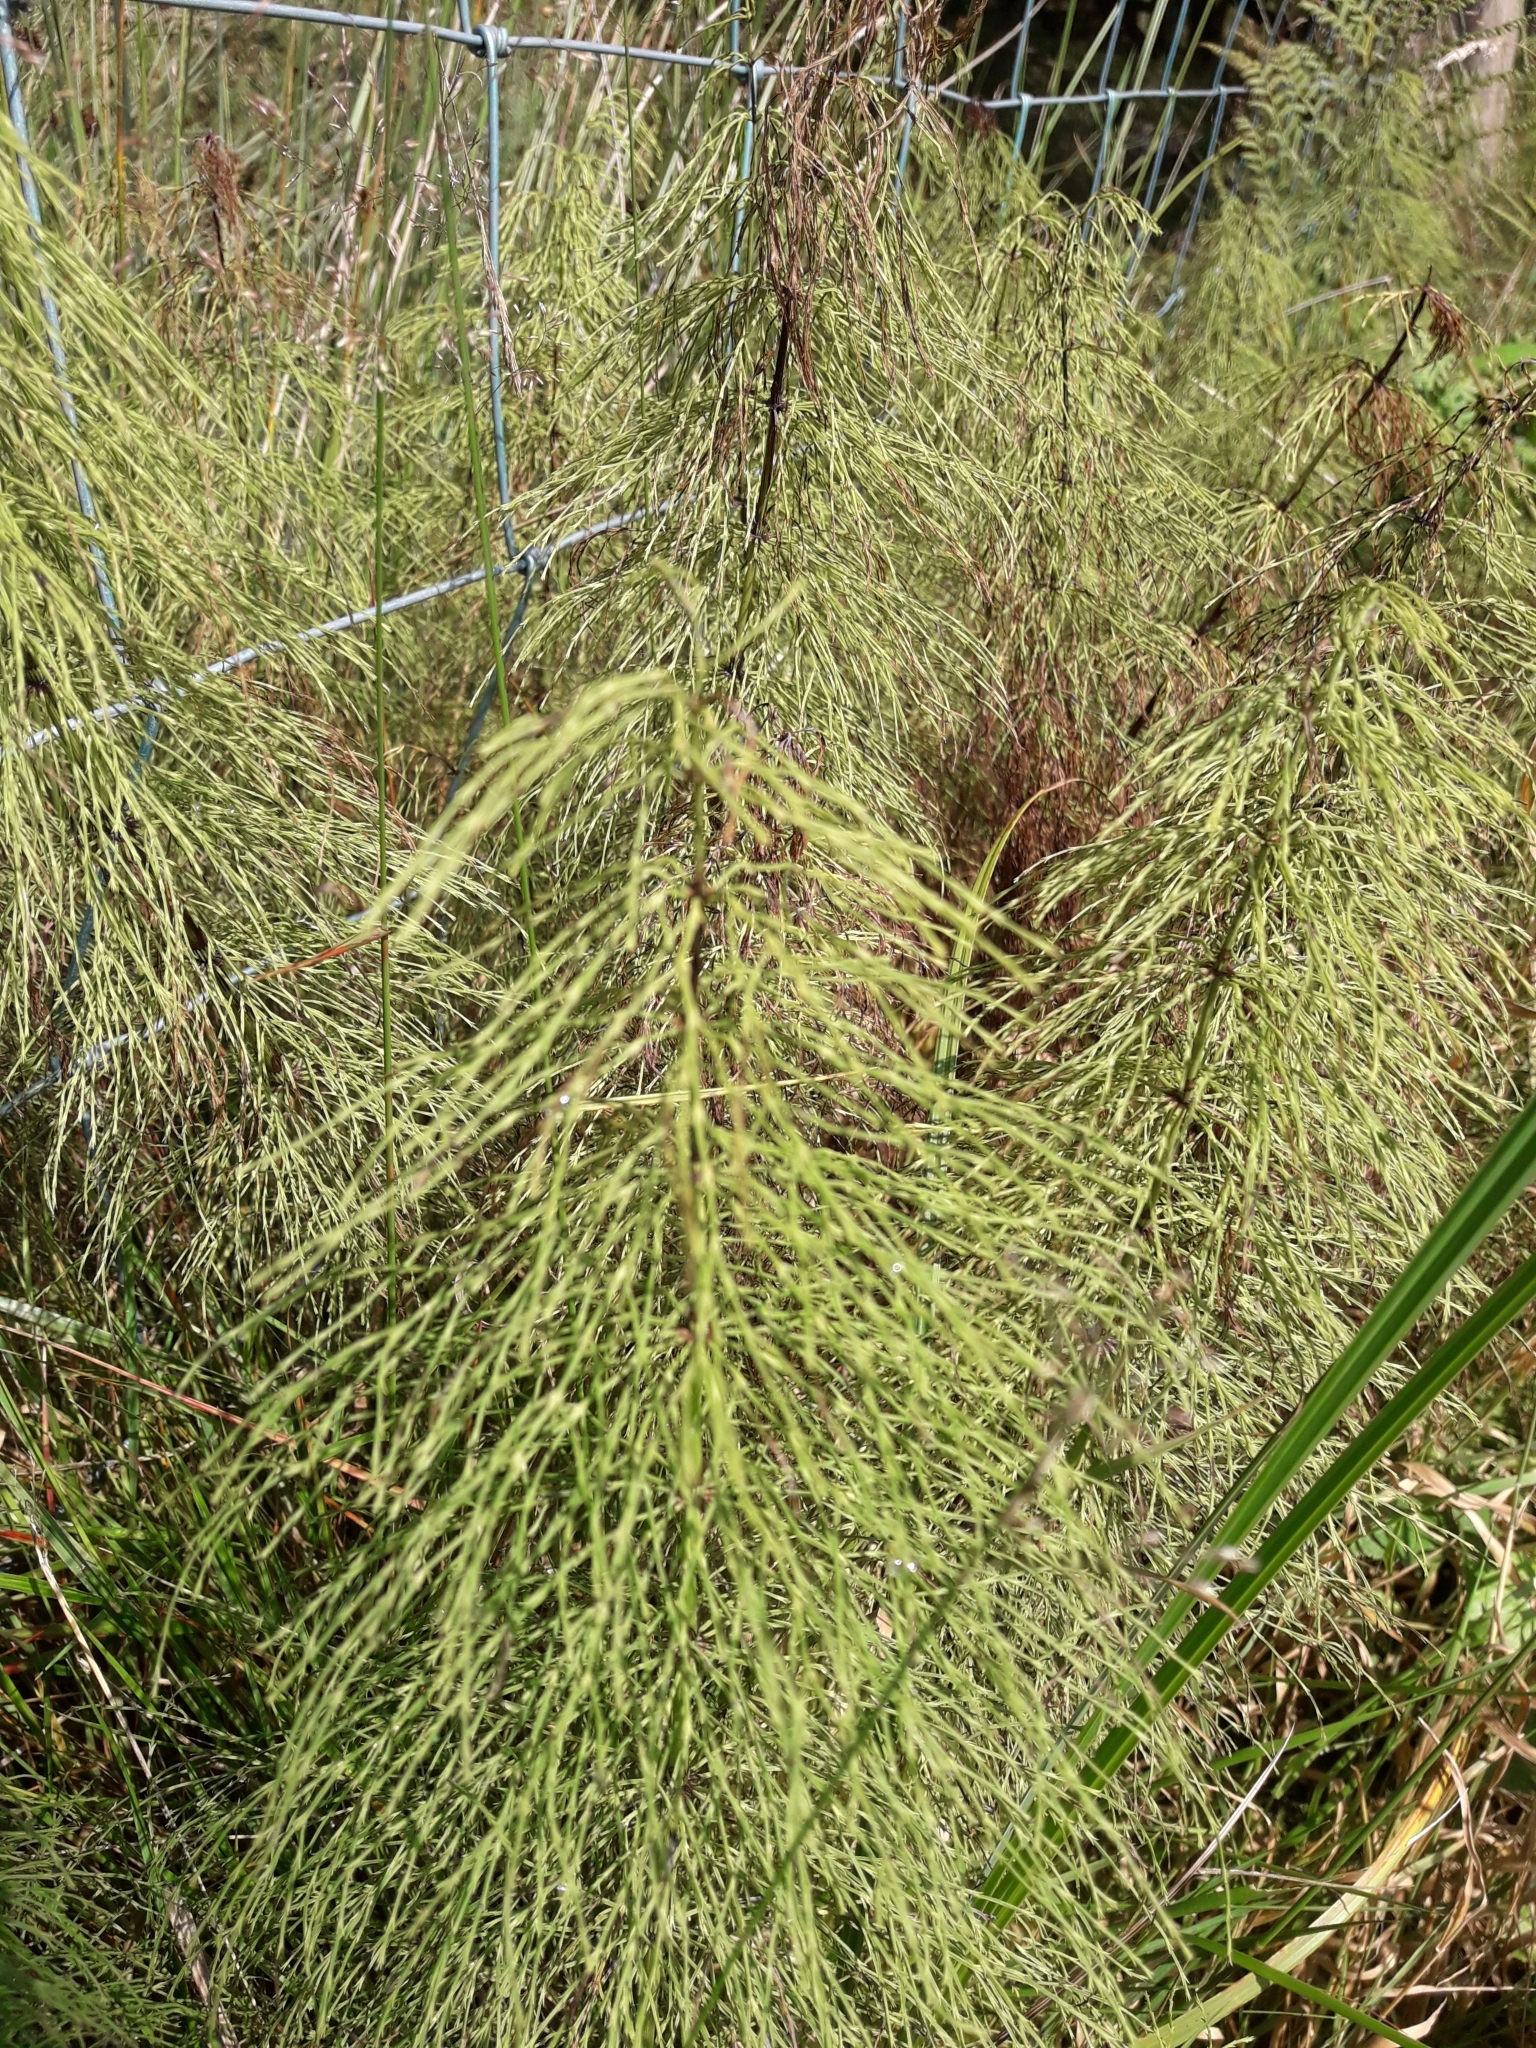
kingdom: Plantae
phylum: Tracheophyta
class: Polypodiopsida
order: Equisetales
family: Equisetaceae
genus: Equisetum
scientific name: Equisetum sylvaticum
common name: Wood horsetail
